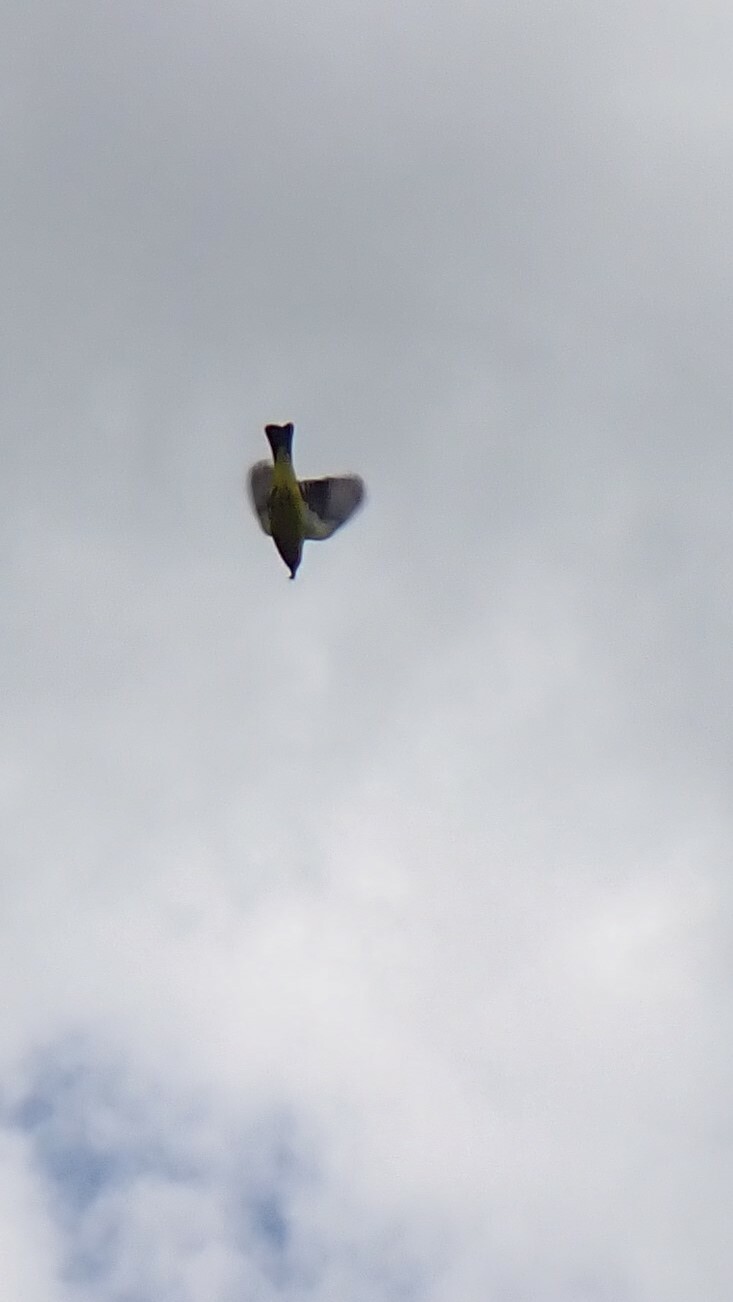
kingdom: Animalia
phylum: Chordata
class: Aves
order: Passeriformes
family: Cardinalidae
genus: Piranga
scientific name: Piranga ludoviciana
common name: Western tanager
